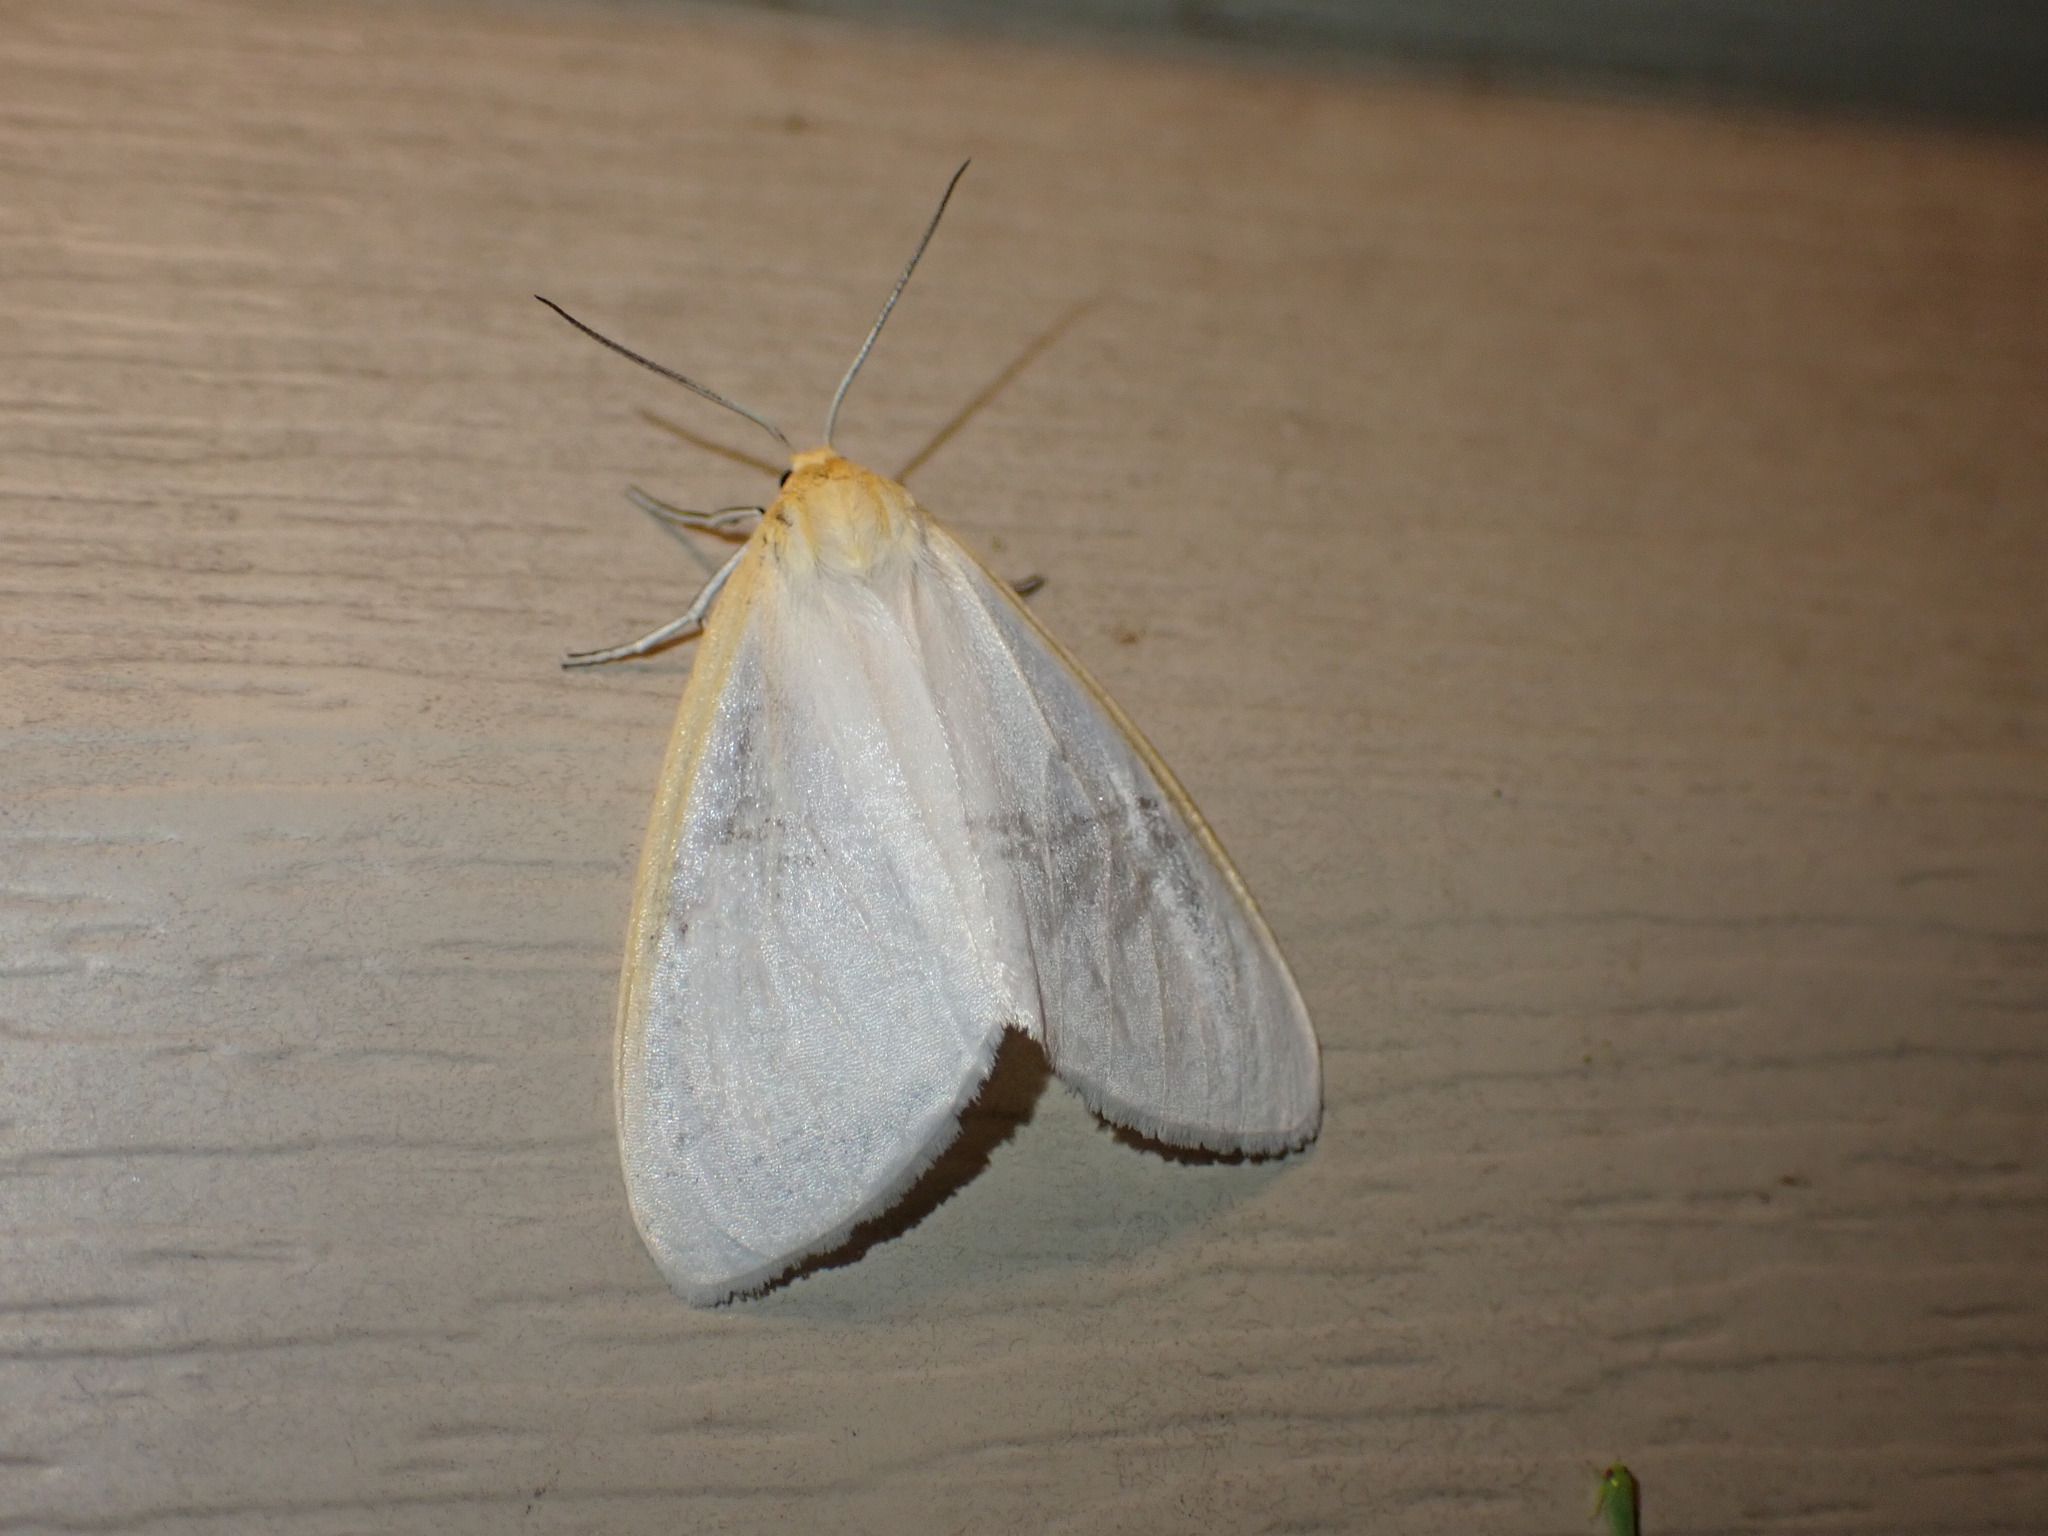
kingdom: Animalia
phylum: Arthropoda
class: Insecta
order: Lepidoptera
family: Erebidae
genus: Cycnia
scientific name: Cycnia tenera
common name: Delicate cycnia moth
